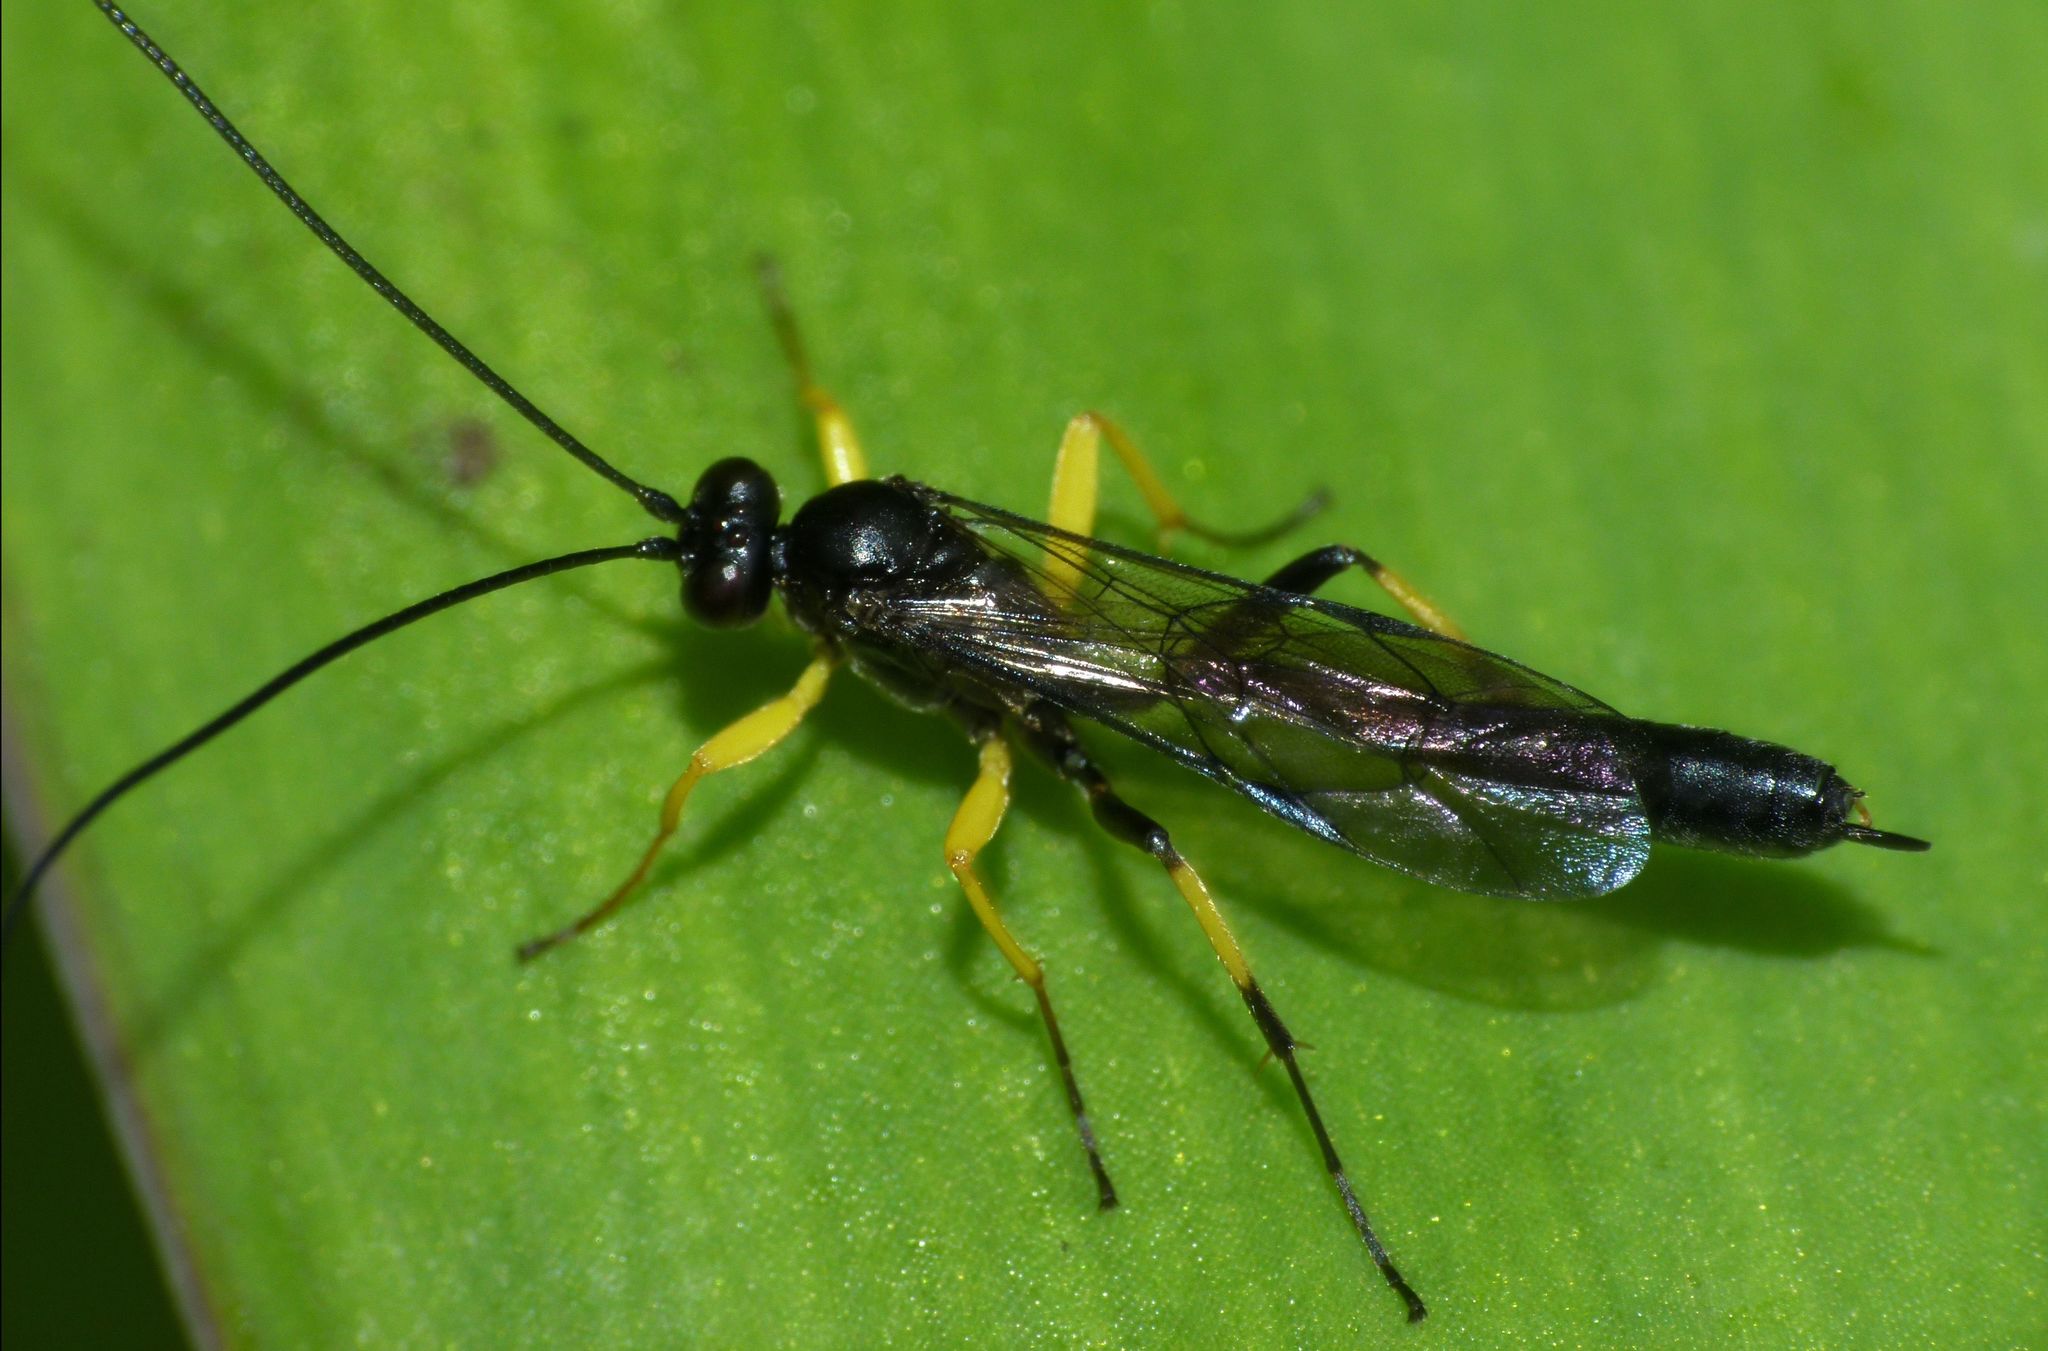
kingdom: Animalia
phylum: Arthropoda
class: Insecta
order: Hymenoptera
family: Ichneumonidae
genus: Dusona
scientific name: Dusona stramineipes
